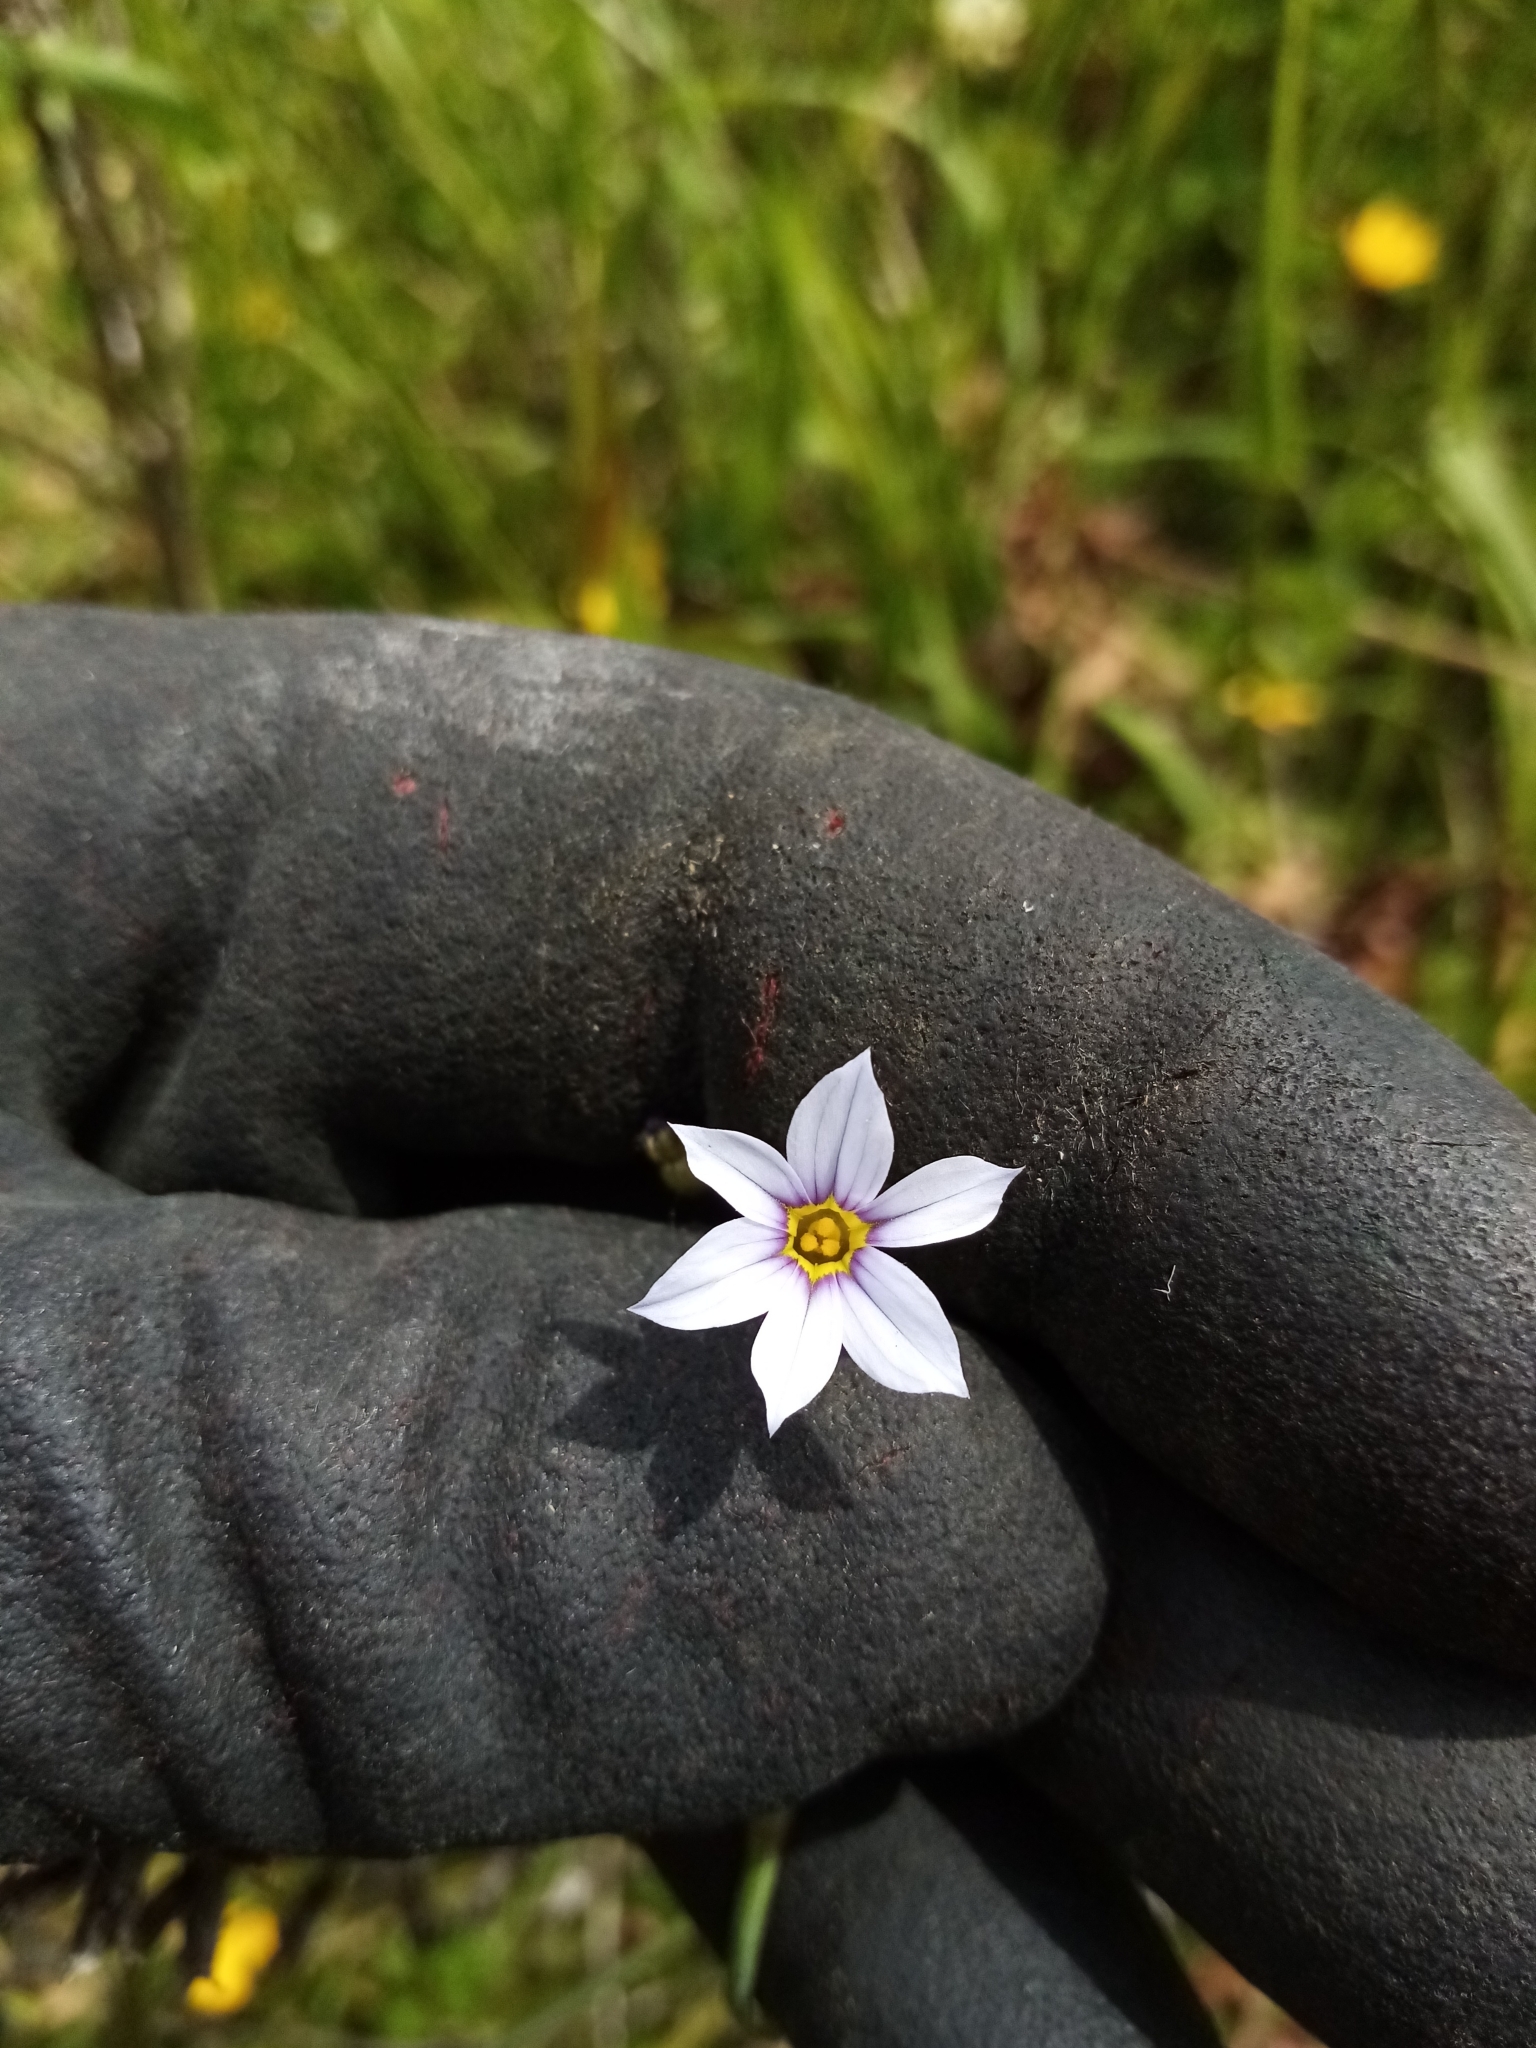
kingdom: Plantae
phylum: Tracheophyta
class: Liliopsida
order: Asparagales
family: Iridaceae
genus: Sisyrinchium
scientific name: Sisyrinchium micranthum
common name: Bermuda pigroot
